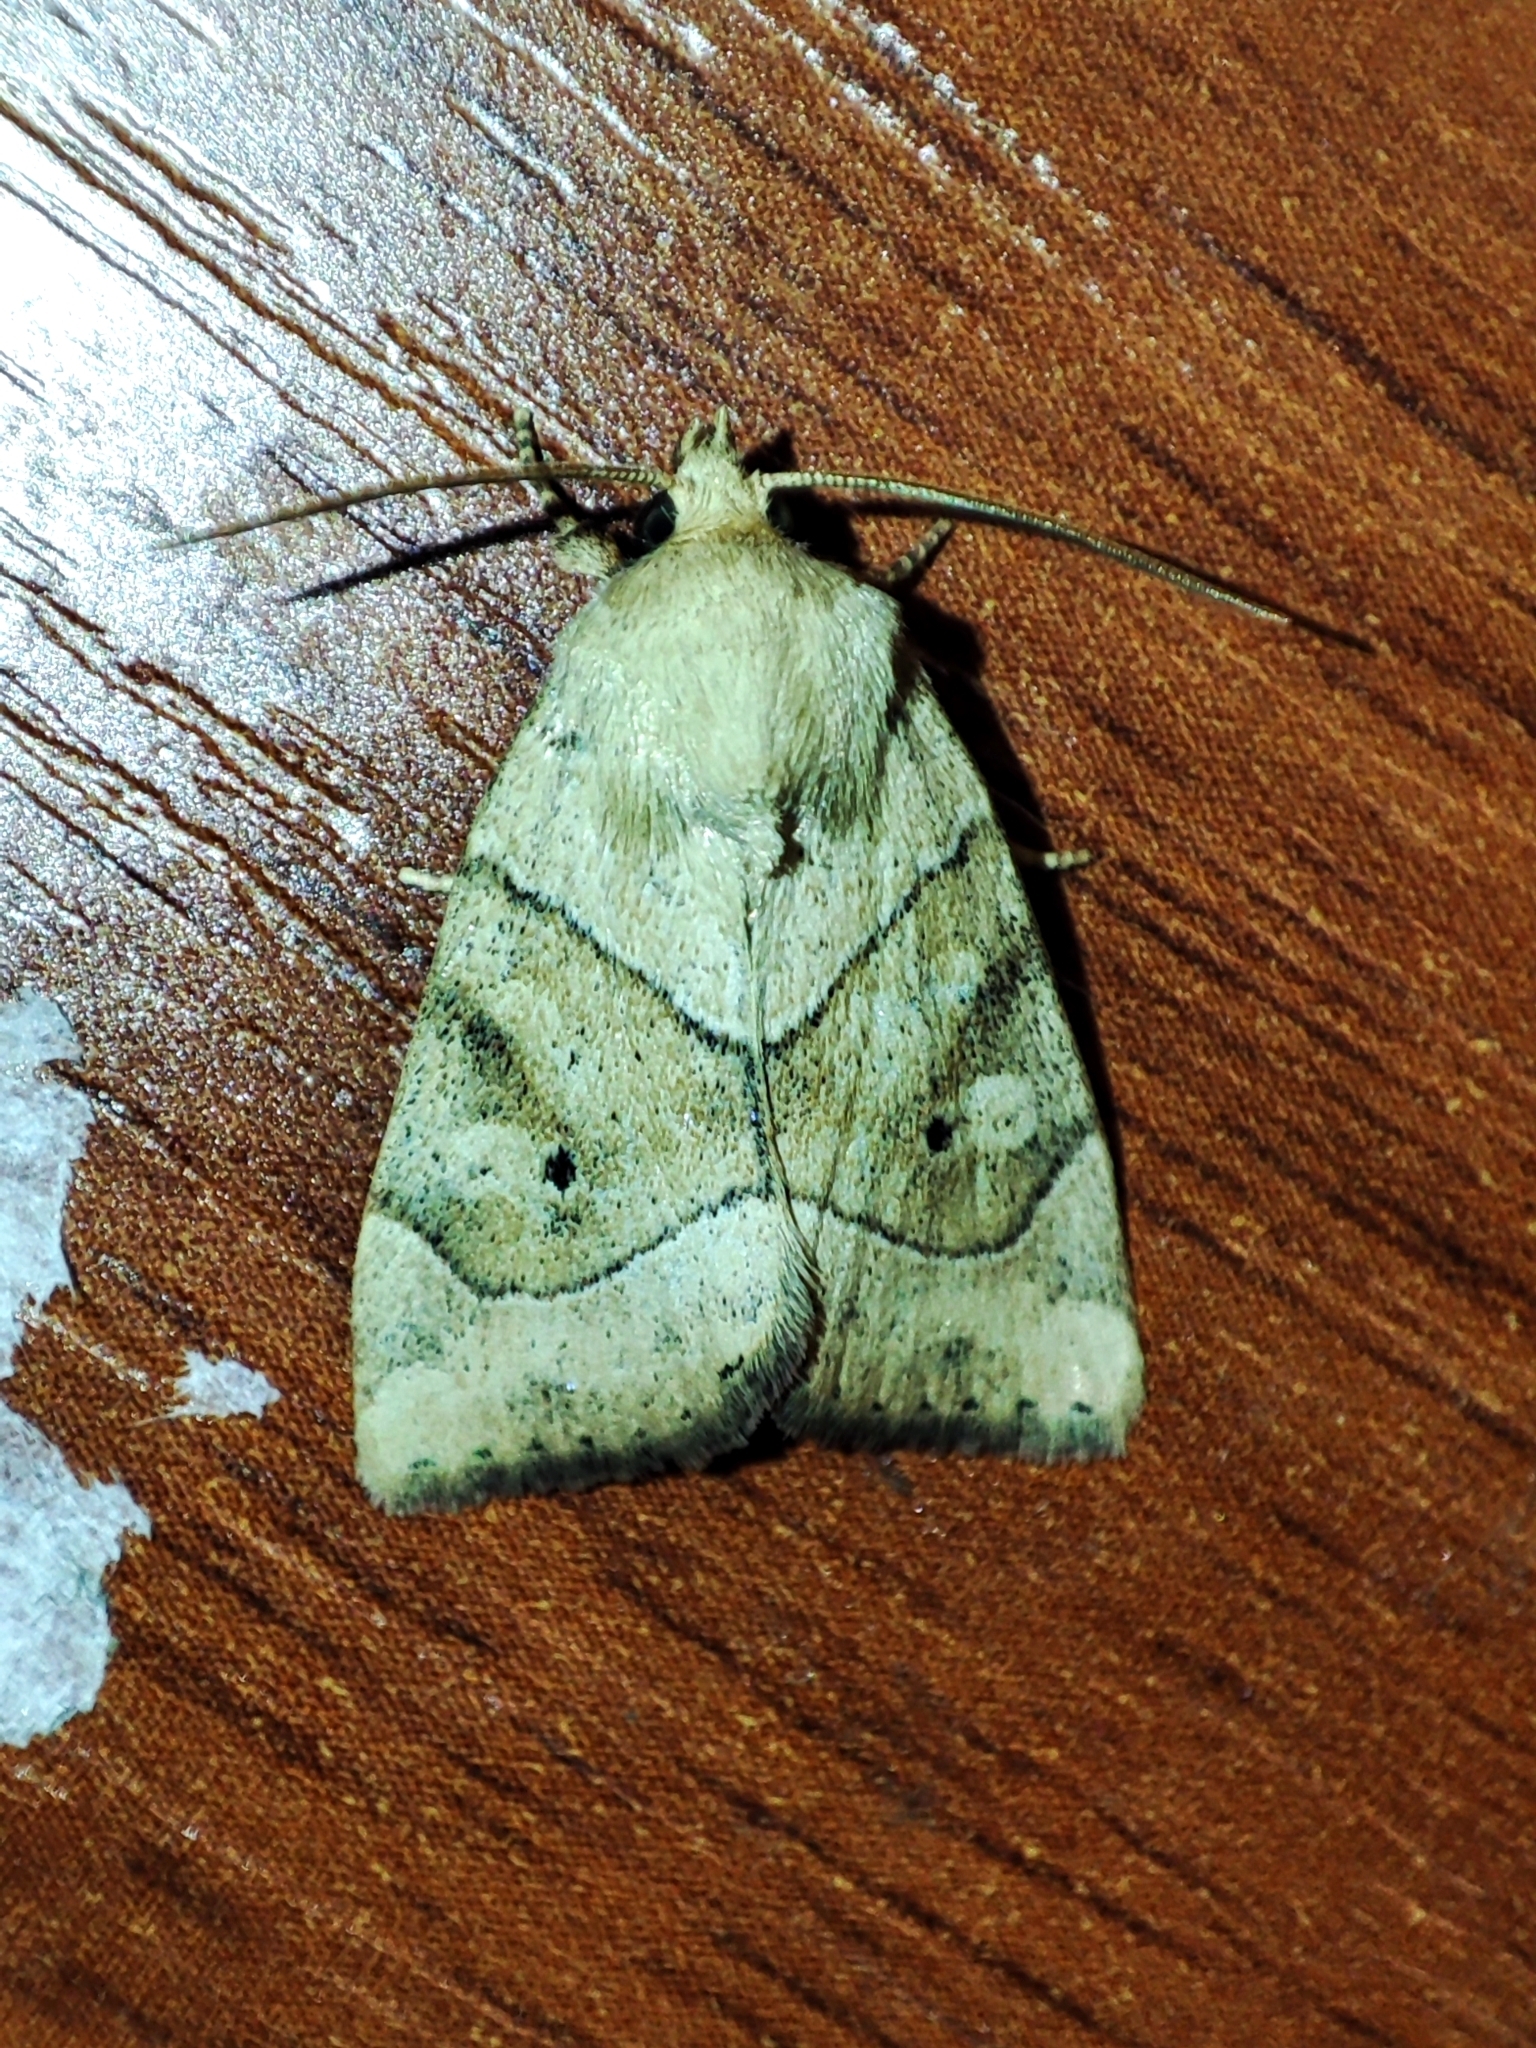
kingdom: Animalia
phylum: Arthropoda
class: Insecta
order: Lepidoptera
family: Noctuidae
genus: Cosmia
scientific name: Cosmia trapezina
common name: Dun-bar
